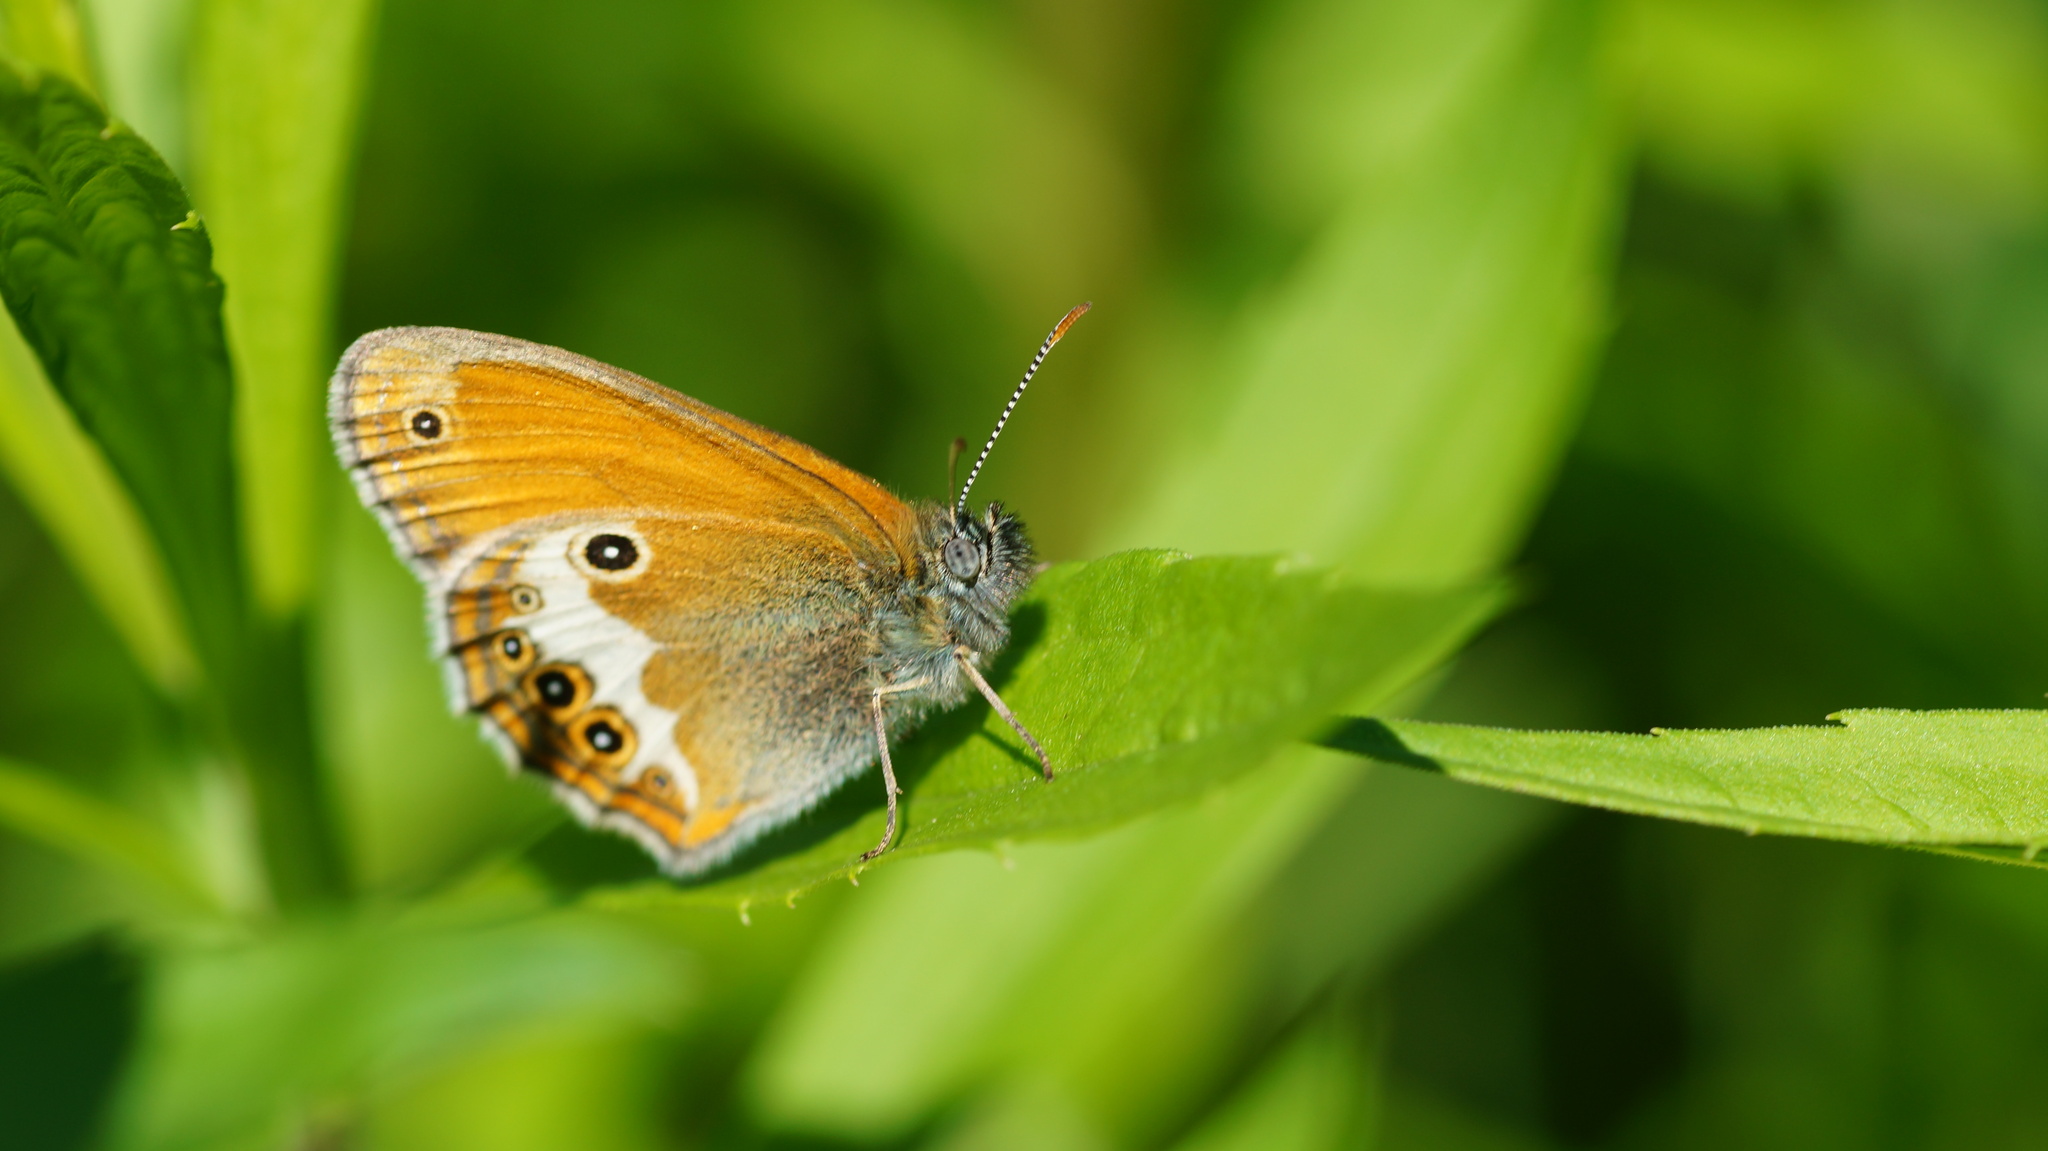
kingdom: Animalia
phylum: Arthropoda
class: Insecta
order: Lepidoptera
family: Nymphalidae
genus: Coenonympha
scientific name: Coenonympha arcania
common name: Pearly heath
